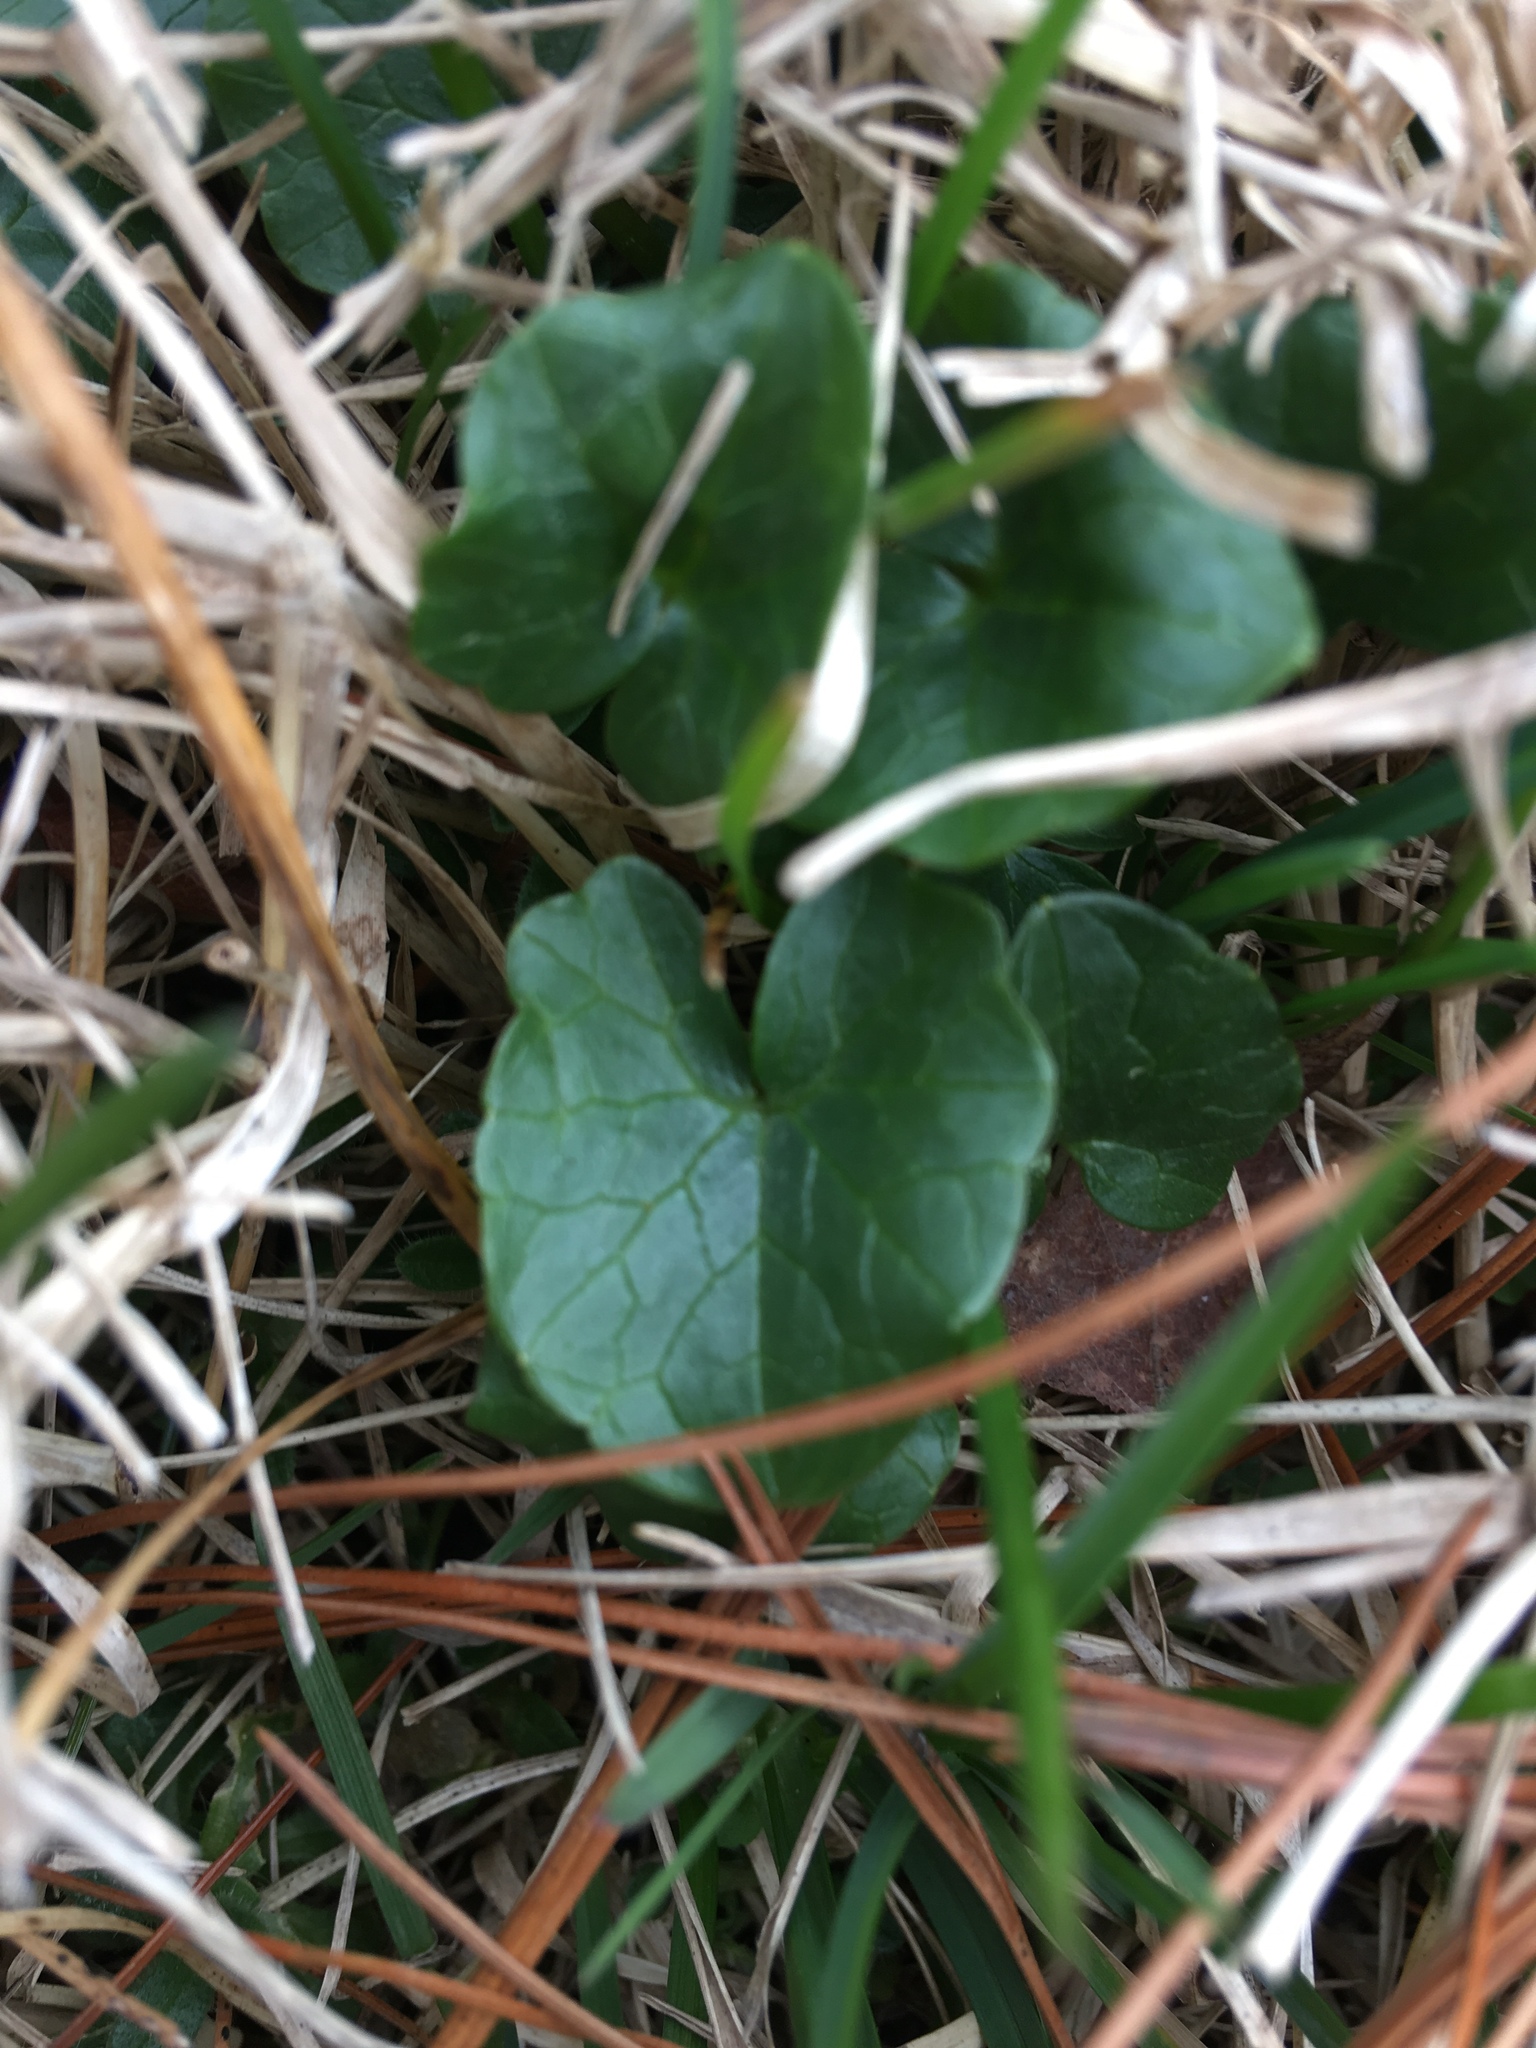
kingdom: Plantae
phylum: Tracheophyta
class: Magnoliopsida
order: Ranunculales
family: Ranunculaceae
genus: Ficaria
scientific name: Ficaria verna
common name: Lesser celandine
